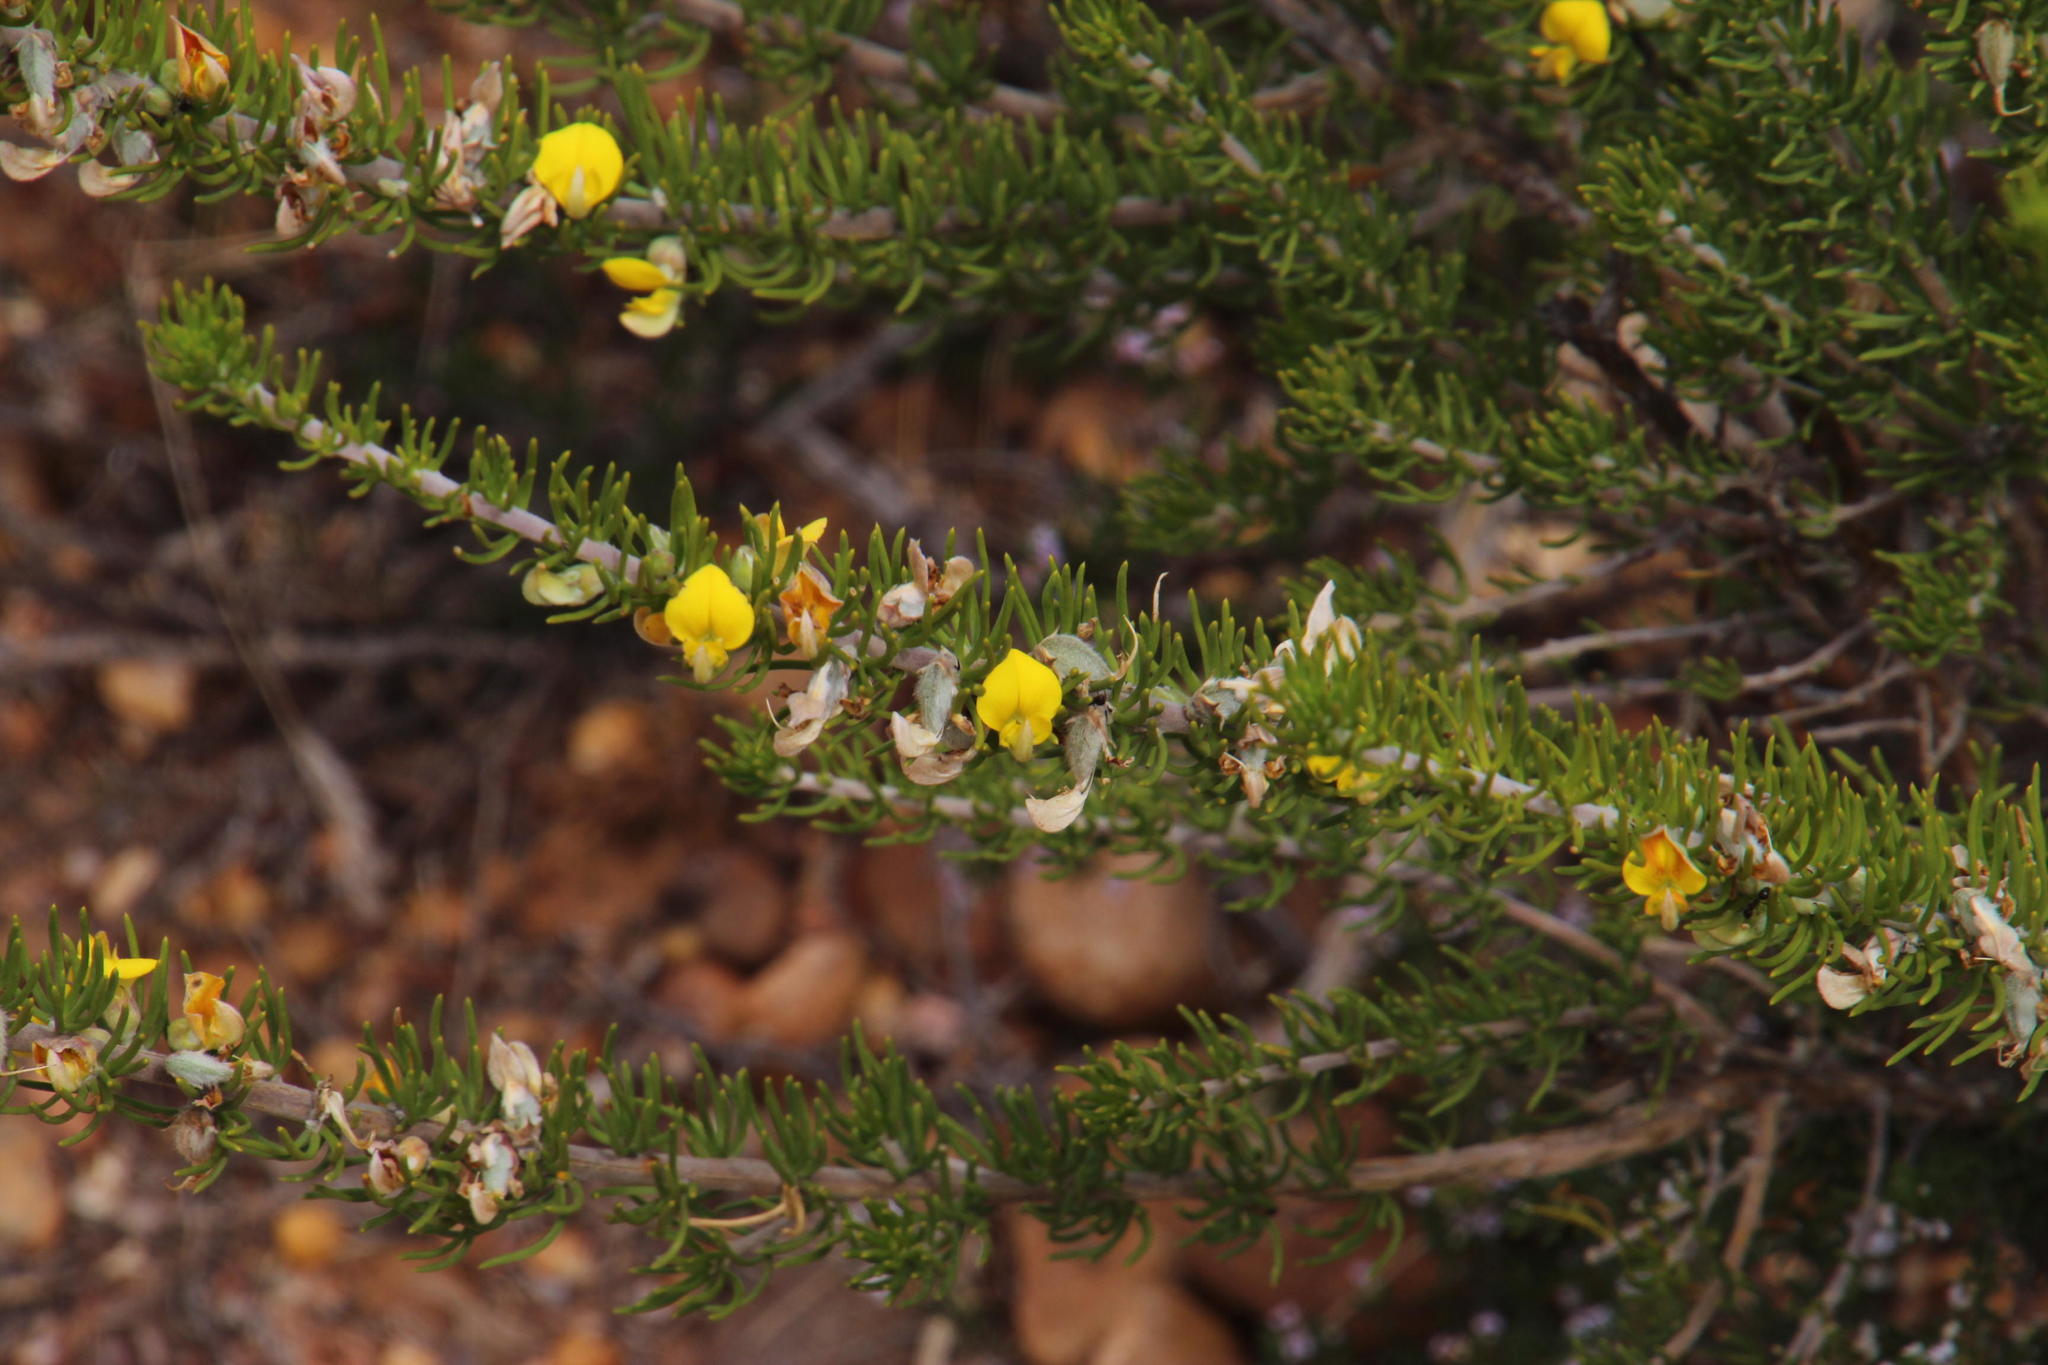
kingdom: Plantae
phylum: Tracheophyta
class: Magnoliopsida
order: Fabales
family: Fabaceae
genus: Aspalathus
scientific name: Aspalathus burchelliana
